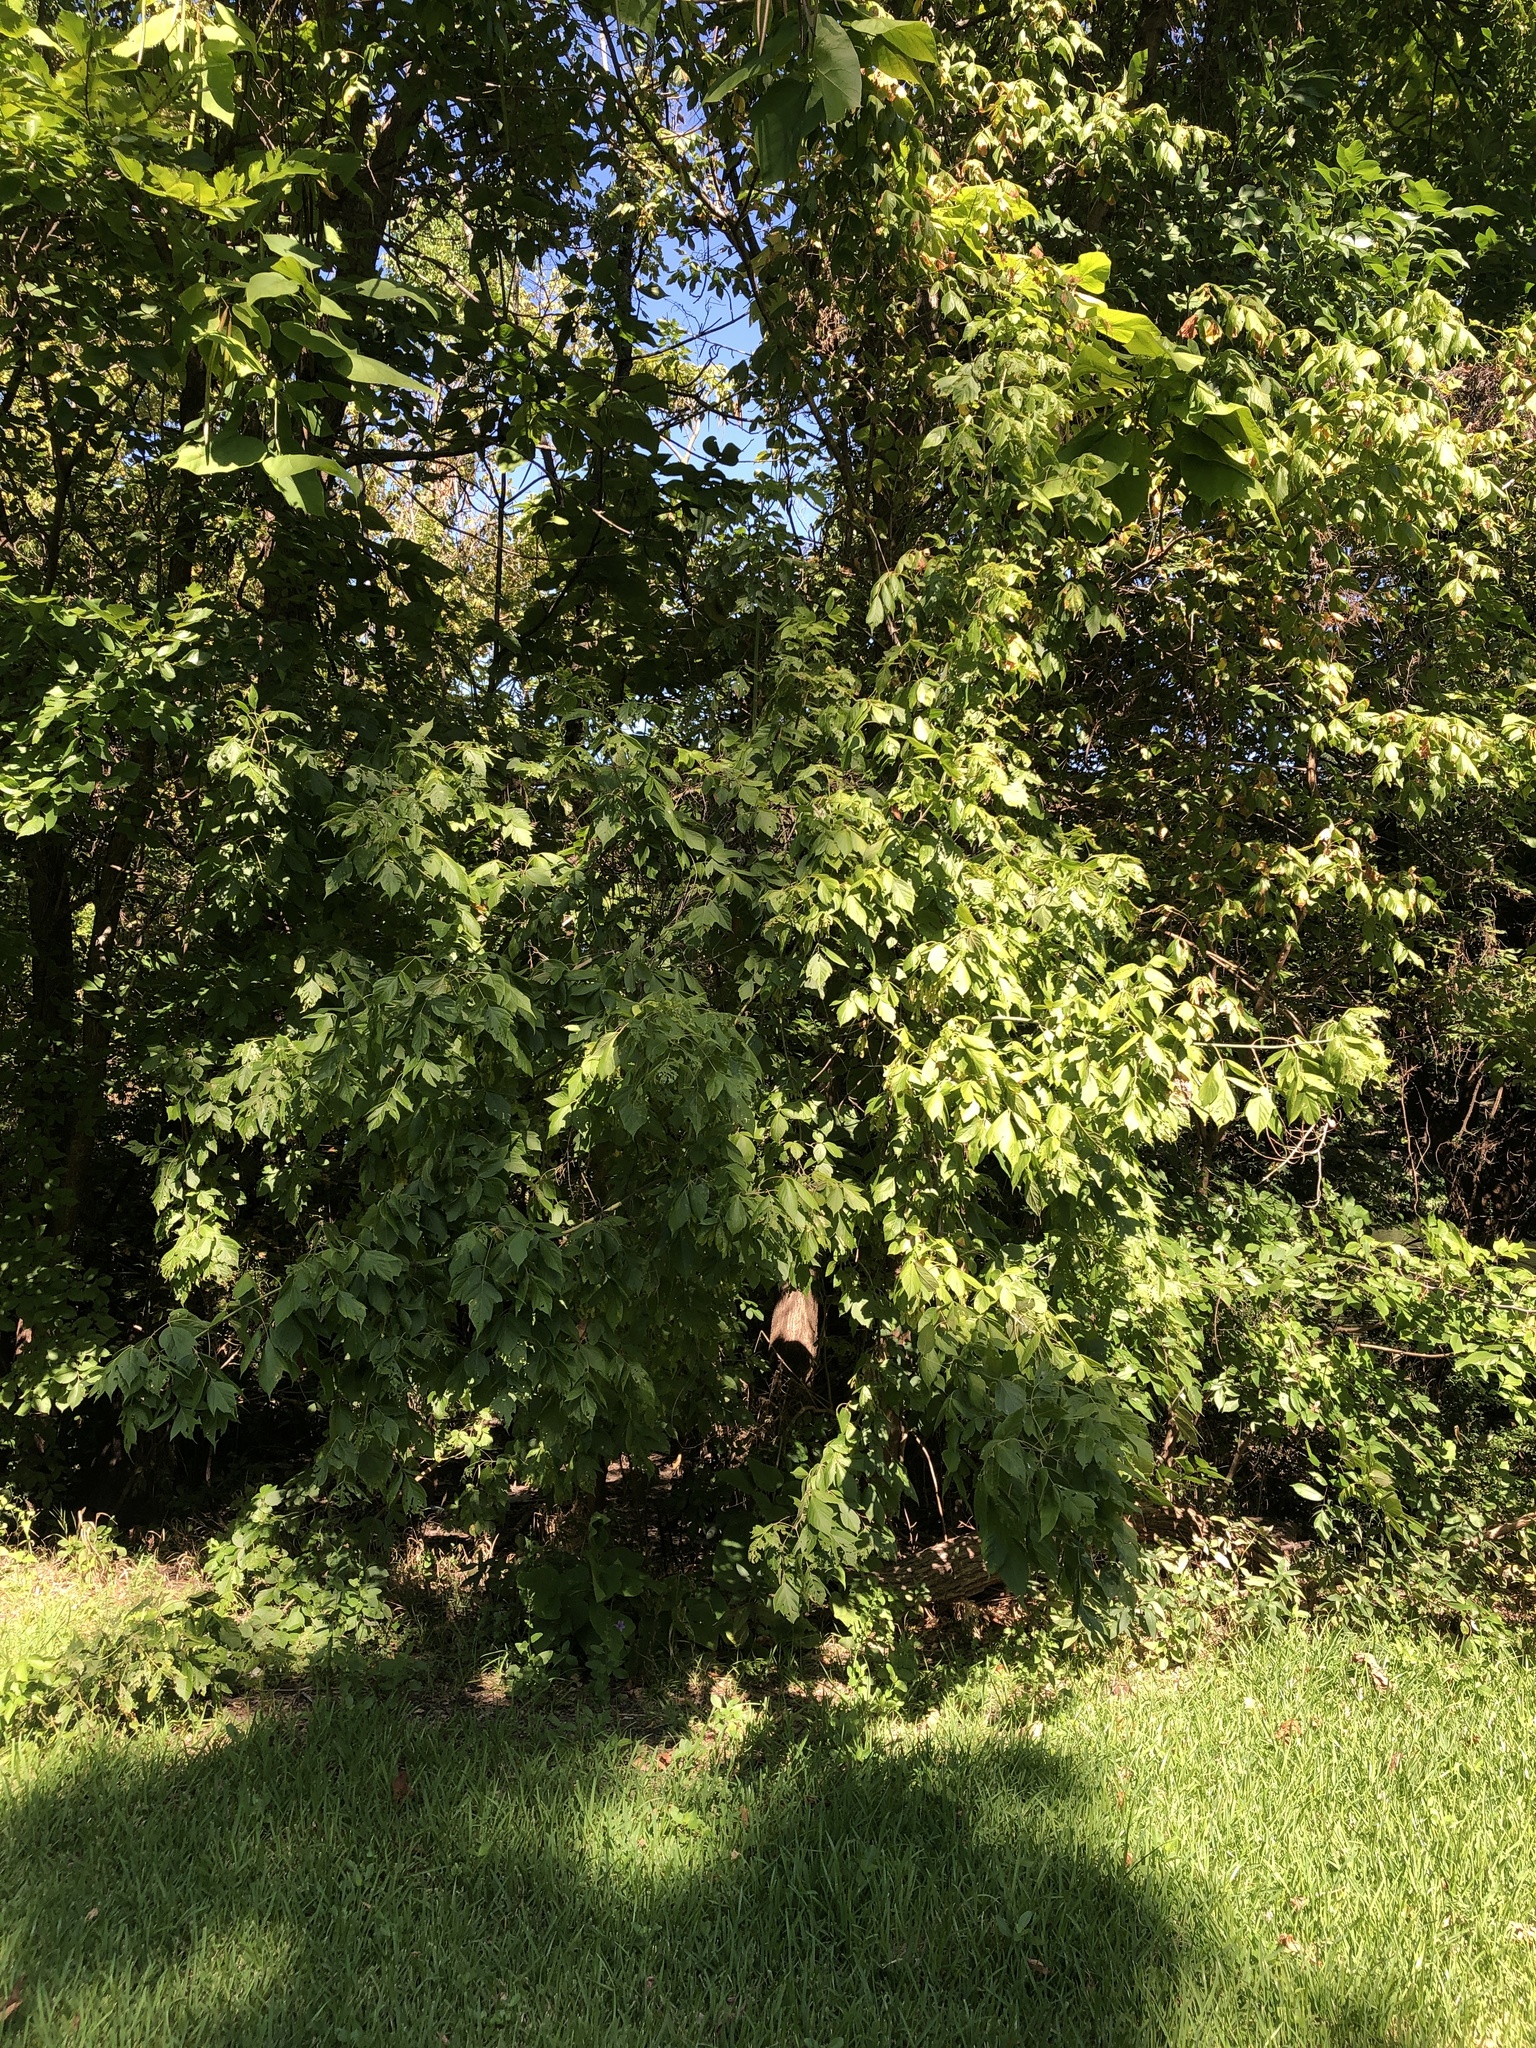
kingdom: Plantae
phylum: Tracheophyta
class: Magnoliopsida
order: Sapindales
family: Sapindaceae
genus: Acer
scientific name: Acer negundo
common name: Ashleaf maple
